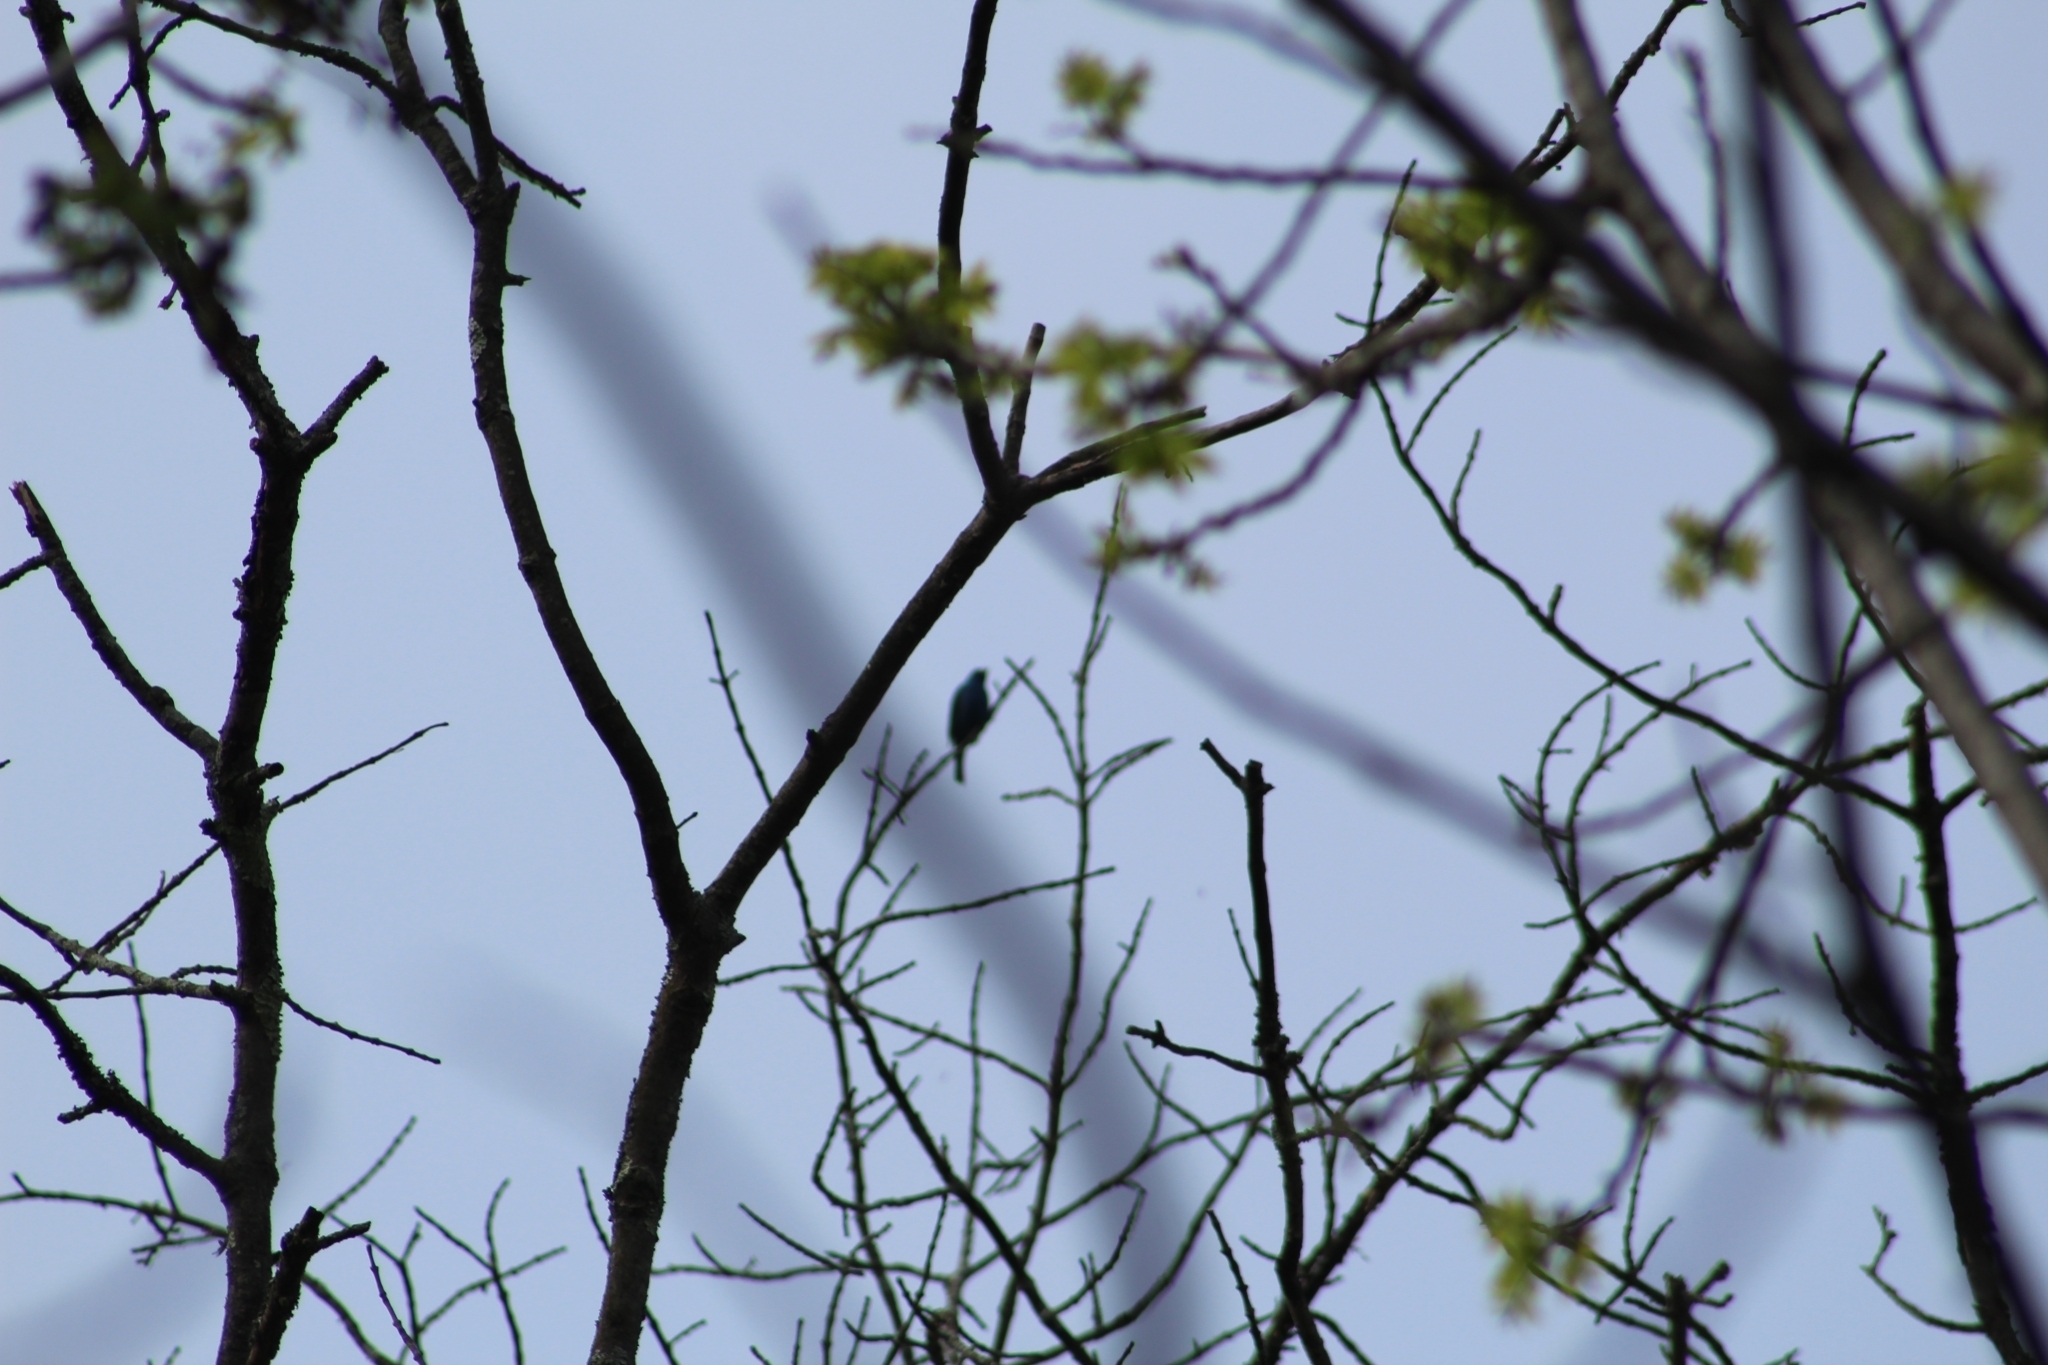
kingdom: Animalia
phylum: Chordata
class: Aves
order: Passeriformes
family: Cardinalidae
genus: Passerina
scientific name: Passerina cyanea
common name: Indigo bunting
